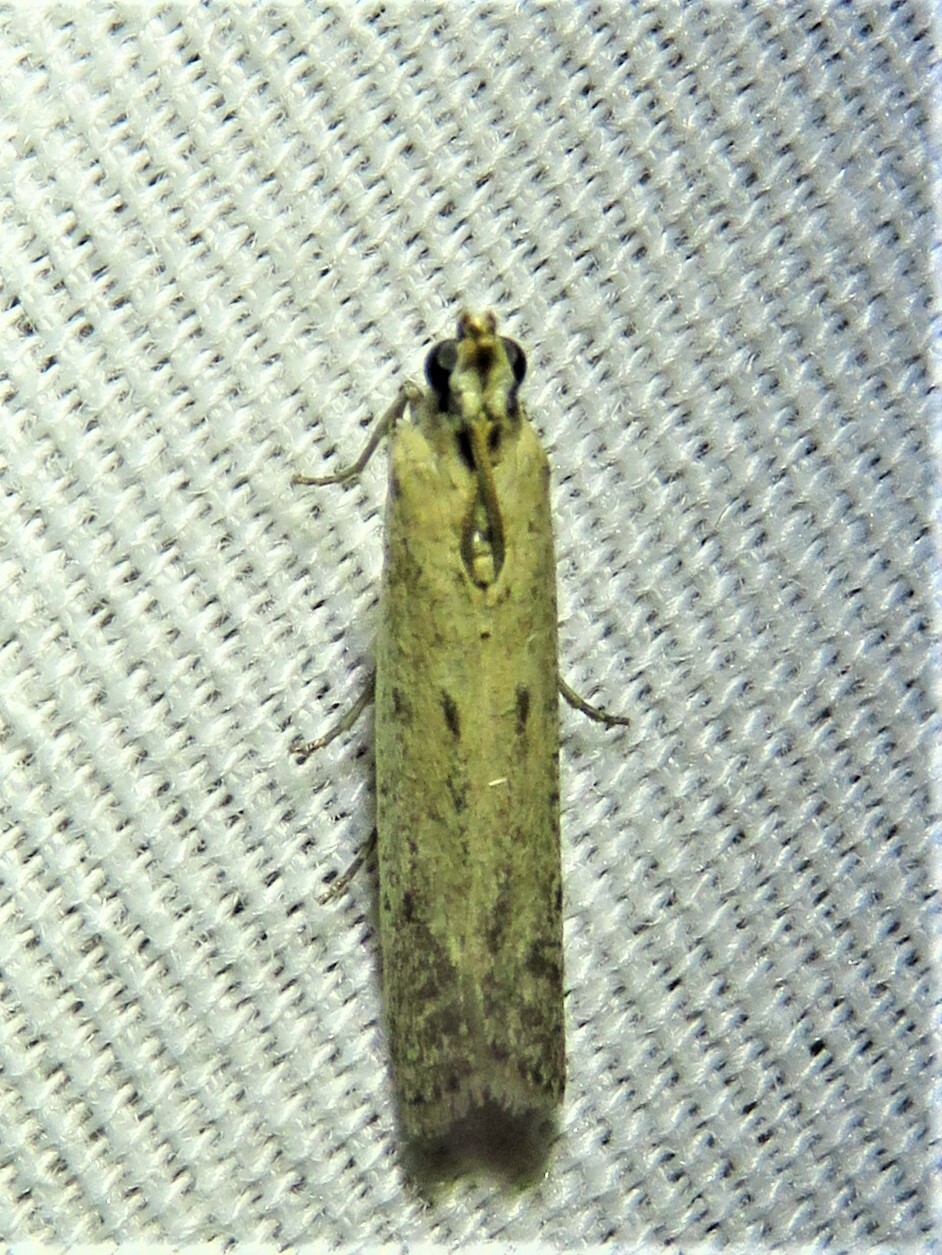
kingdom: Animalia
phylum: Arthropoda
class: Insecta
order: Lepidoptera
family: Pyralidae
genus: Homoeosoma
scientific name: Homoeosoma electella
